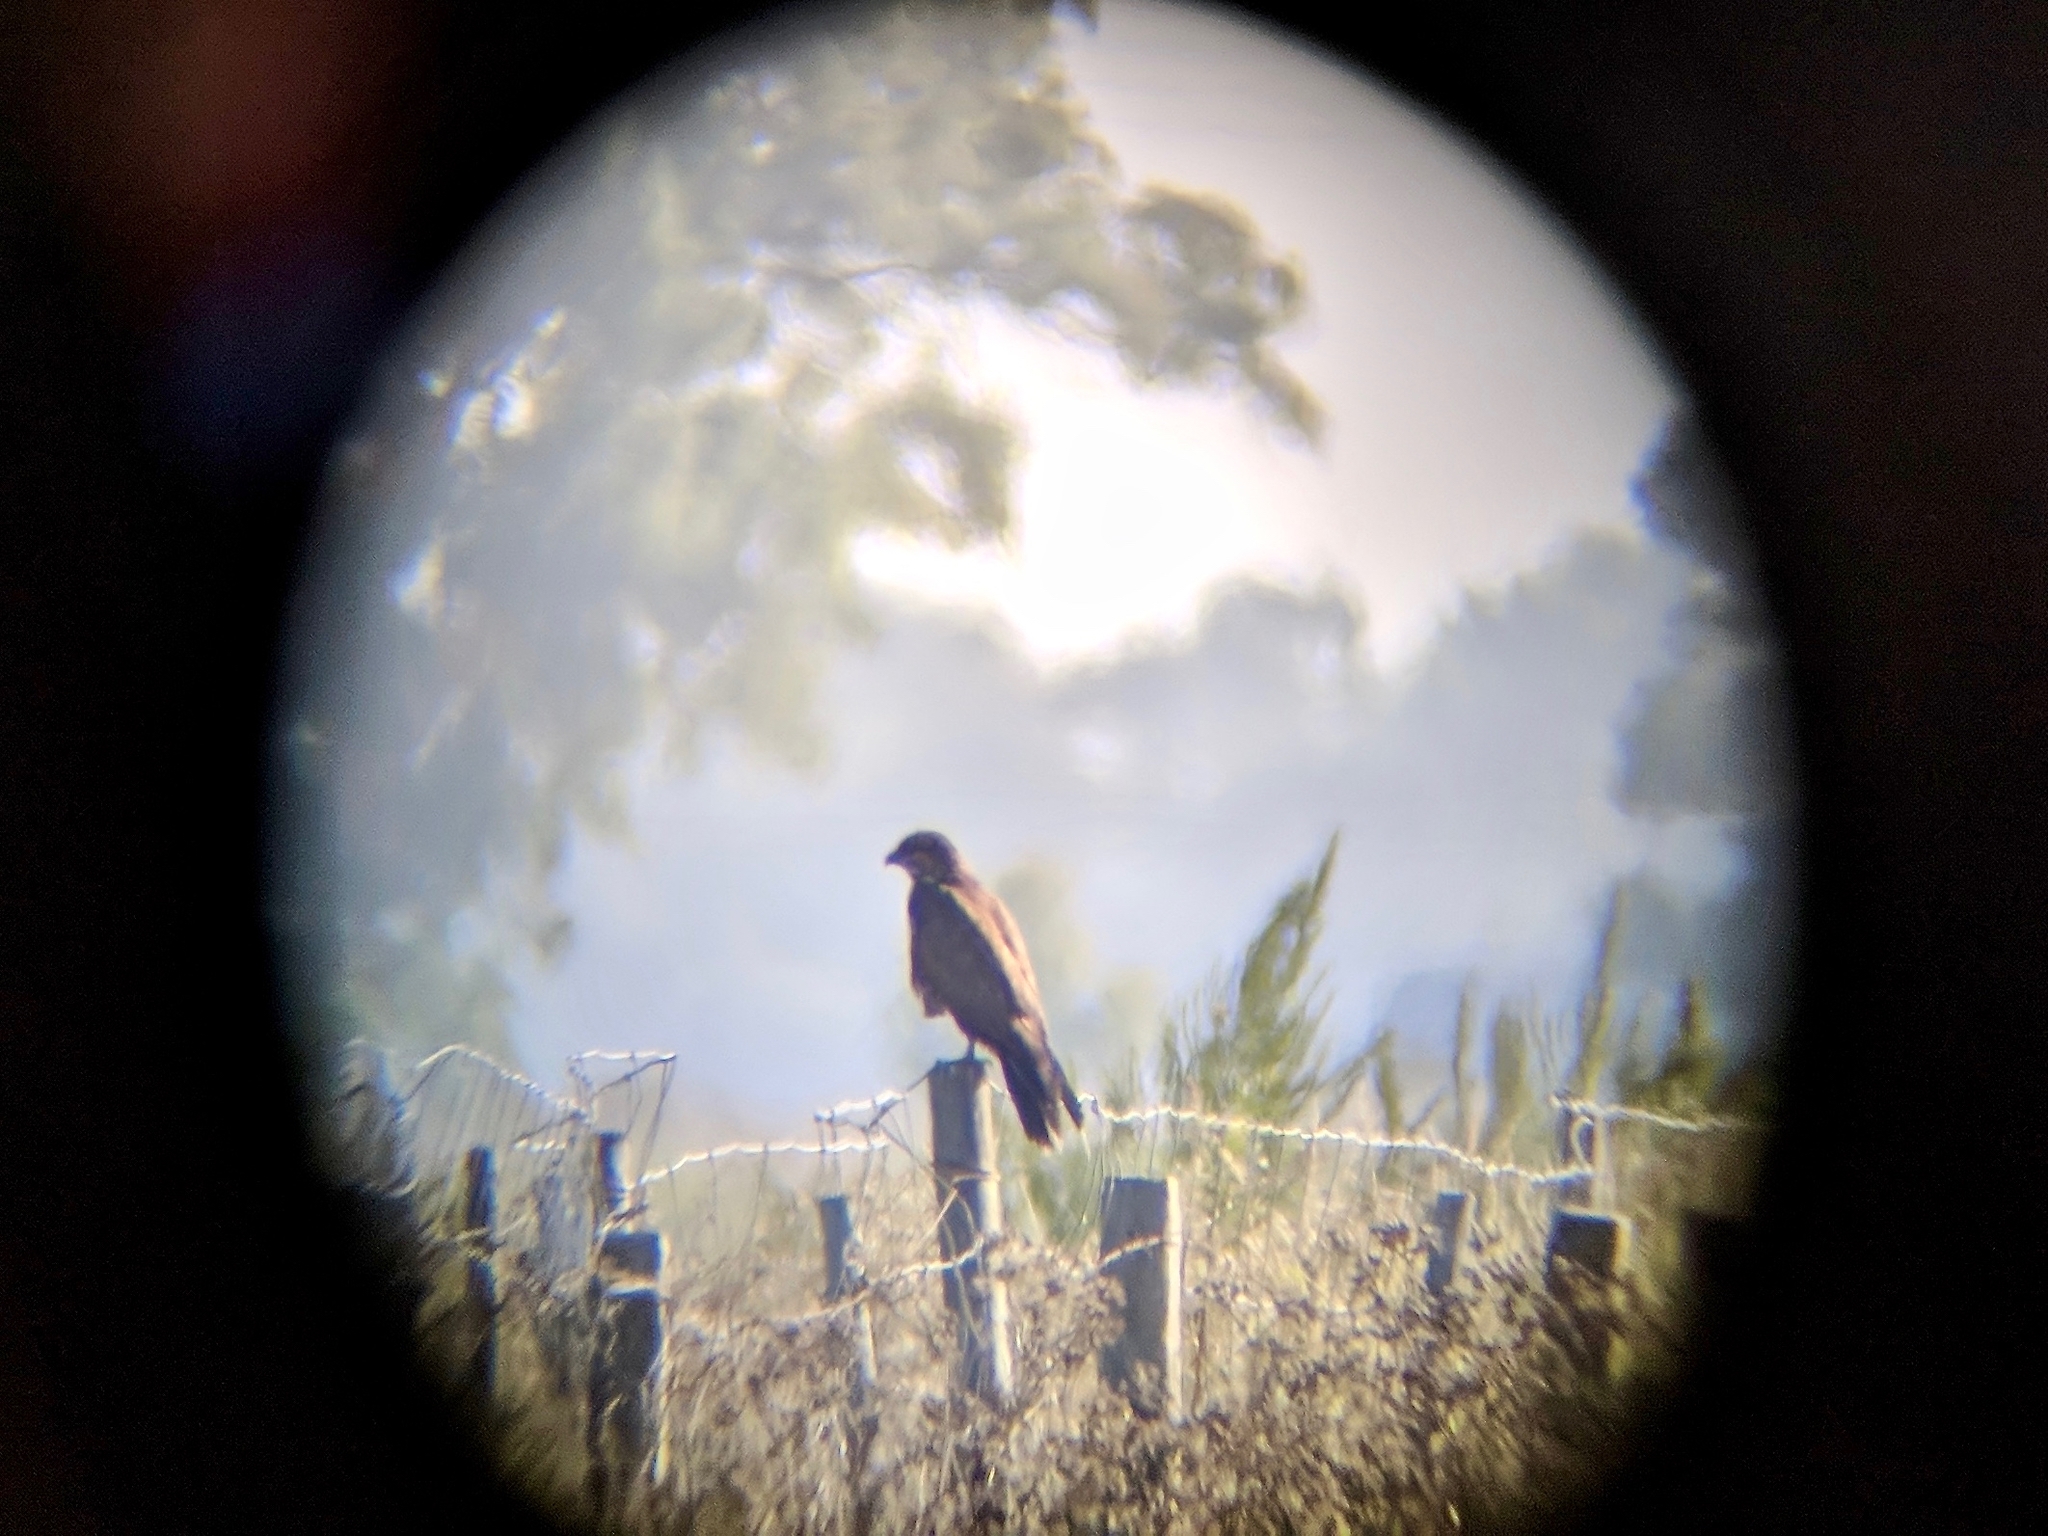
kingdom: Animalia
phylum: Chordata
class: Aves
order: Accipitriformes
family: Accipitridae
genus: Circus
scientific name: Circus aeruginosus
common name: Western marsh harrier
